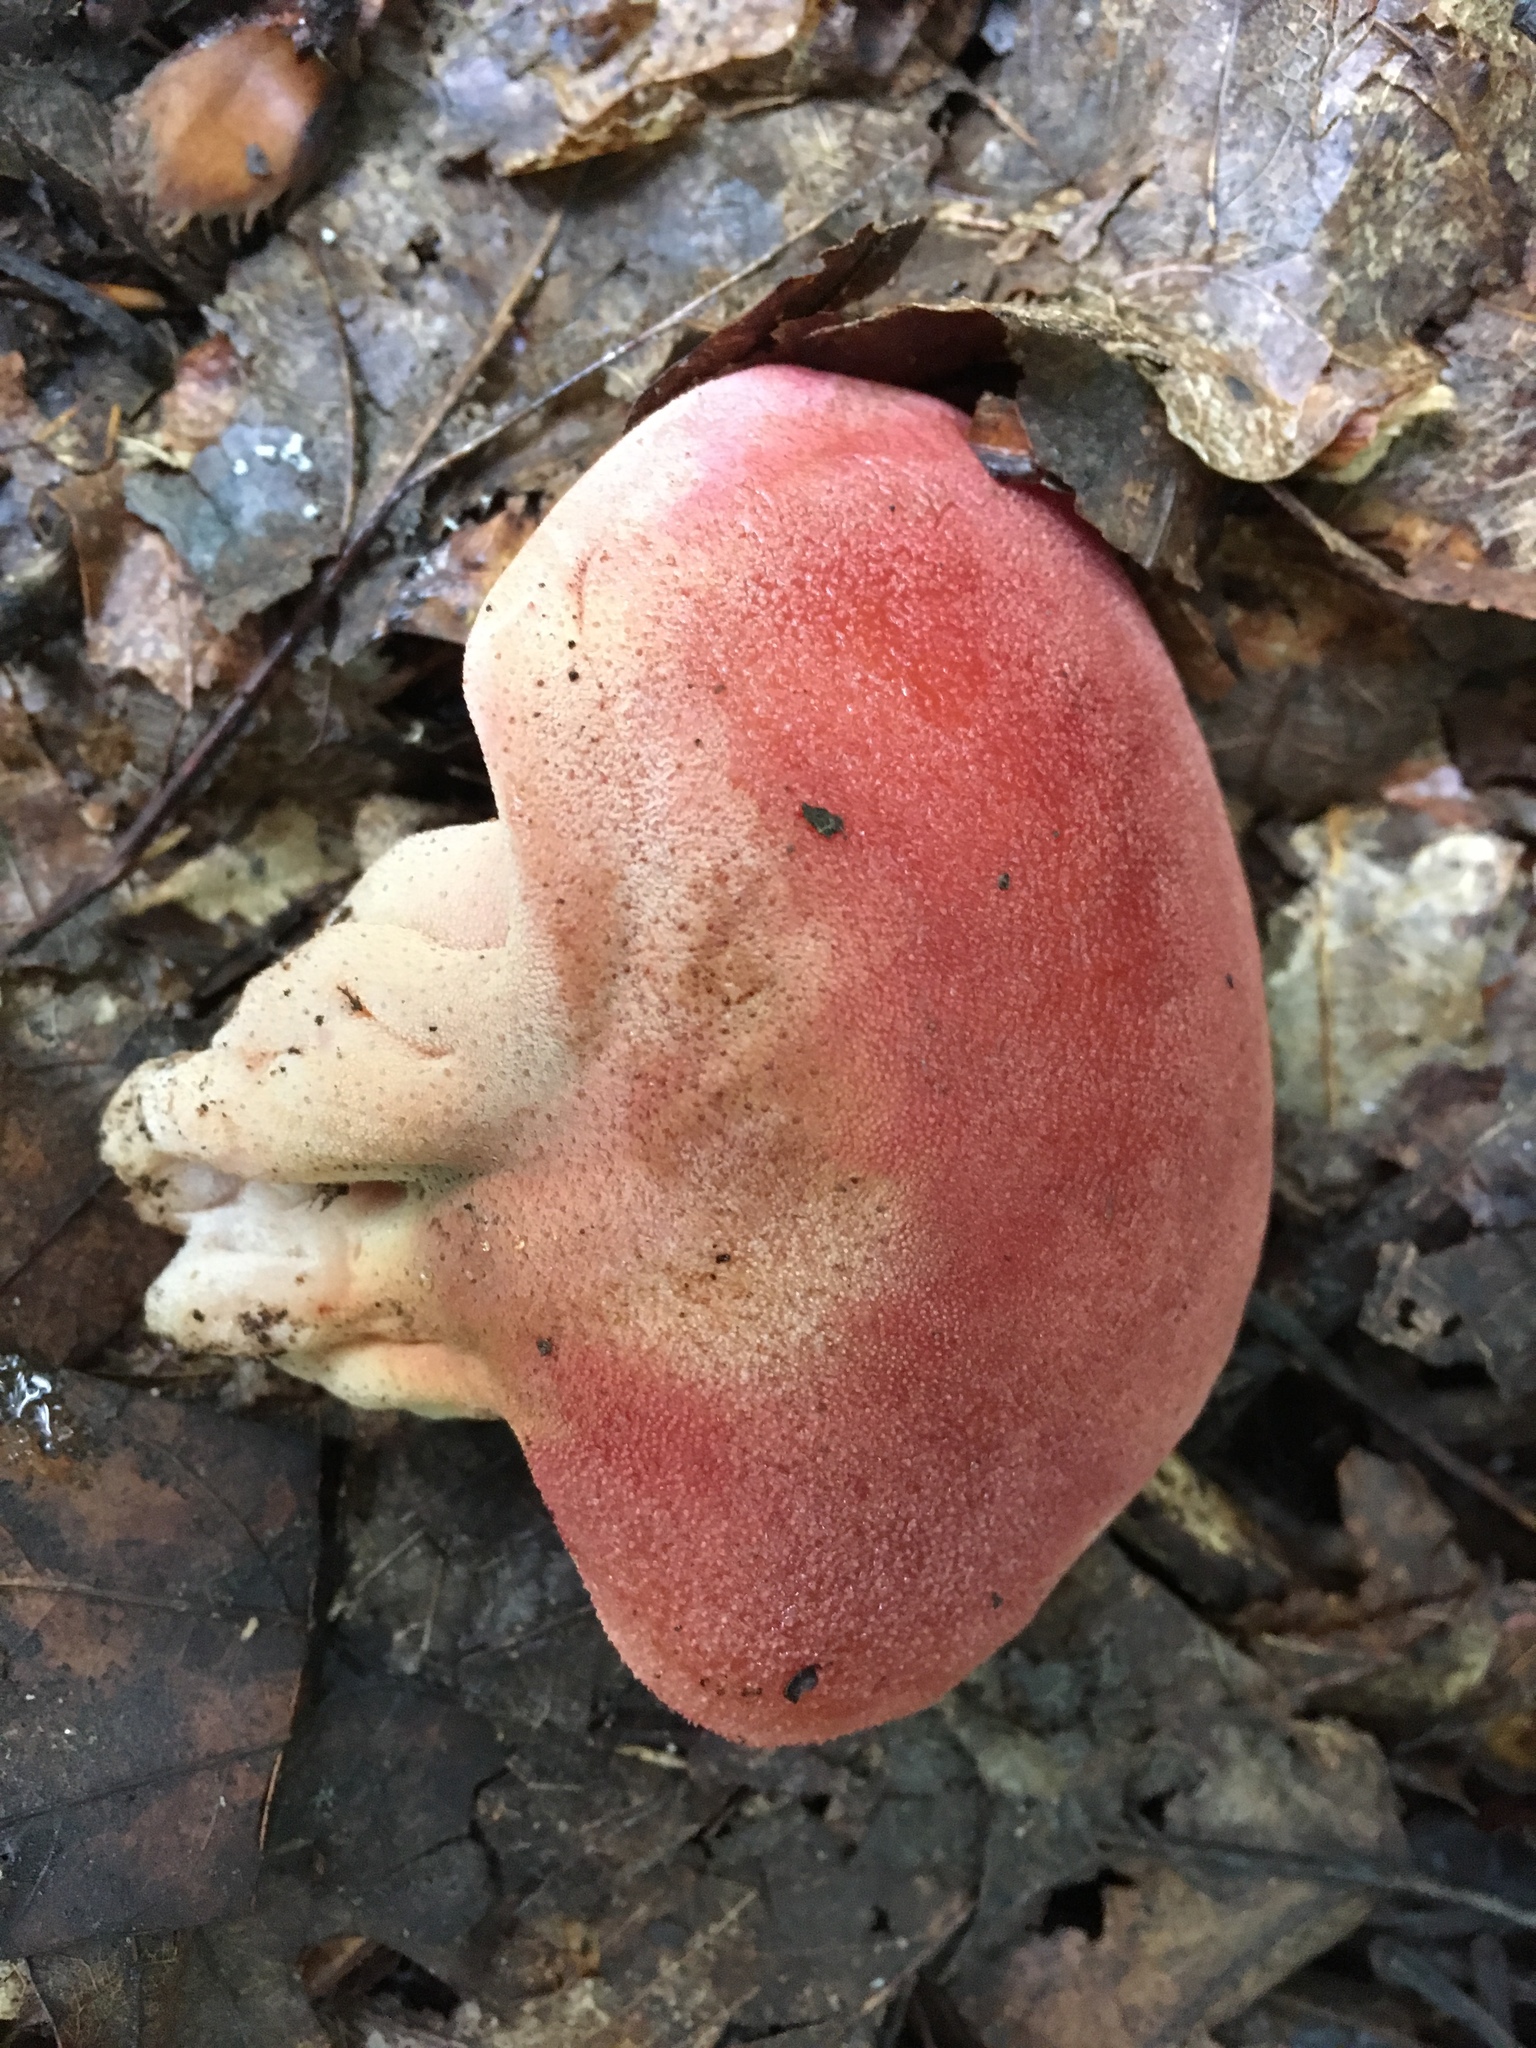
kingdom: Fungi
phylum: Basidiomycota
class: Agaricomycetes
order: Agaricales
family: Fistulinaceae
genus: Fistulina
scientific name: Fistulina hepatica
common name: Beef-steak fungus
